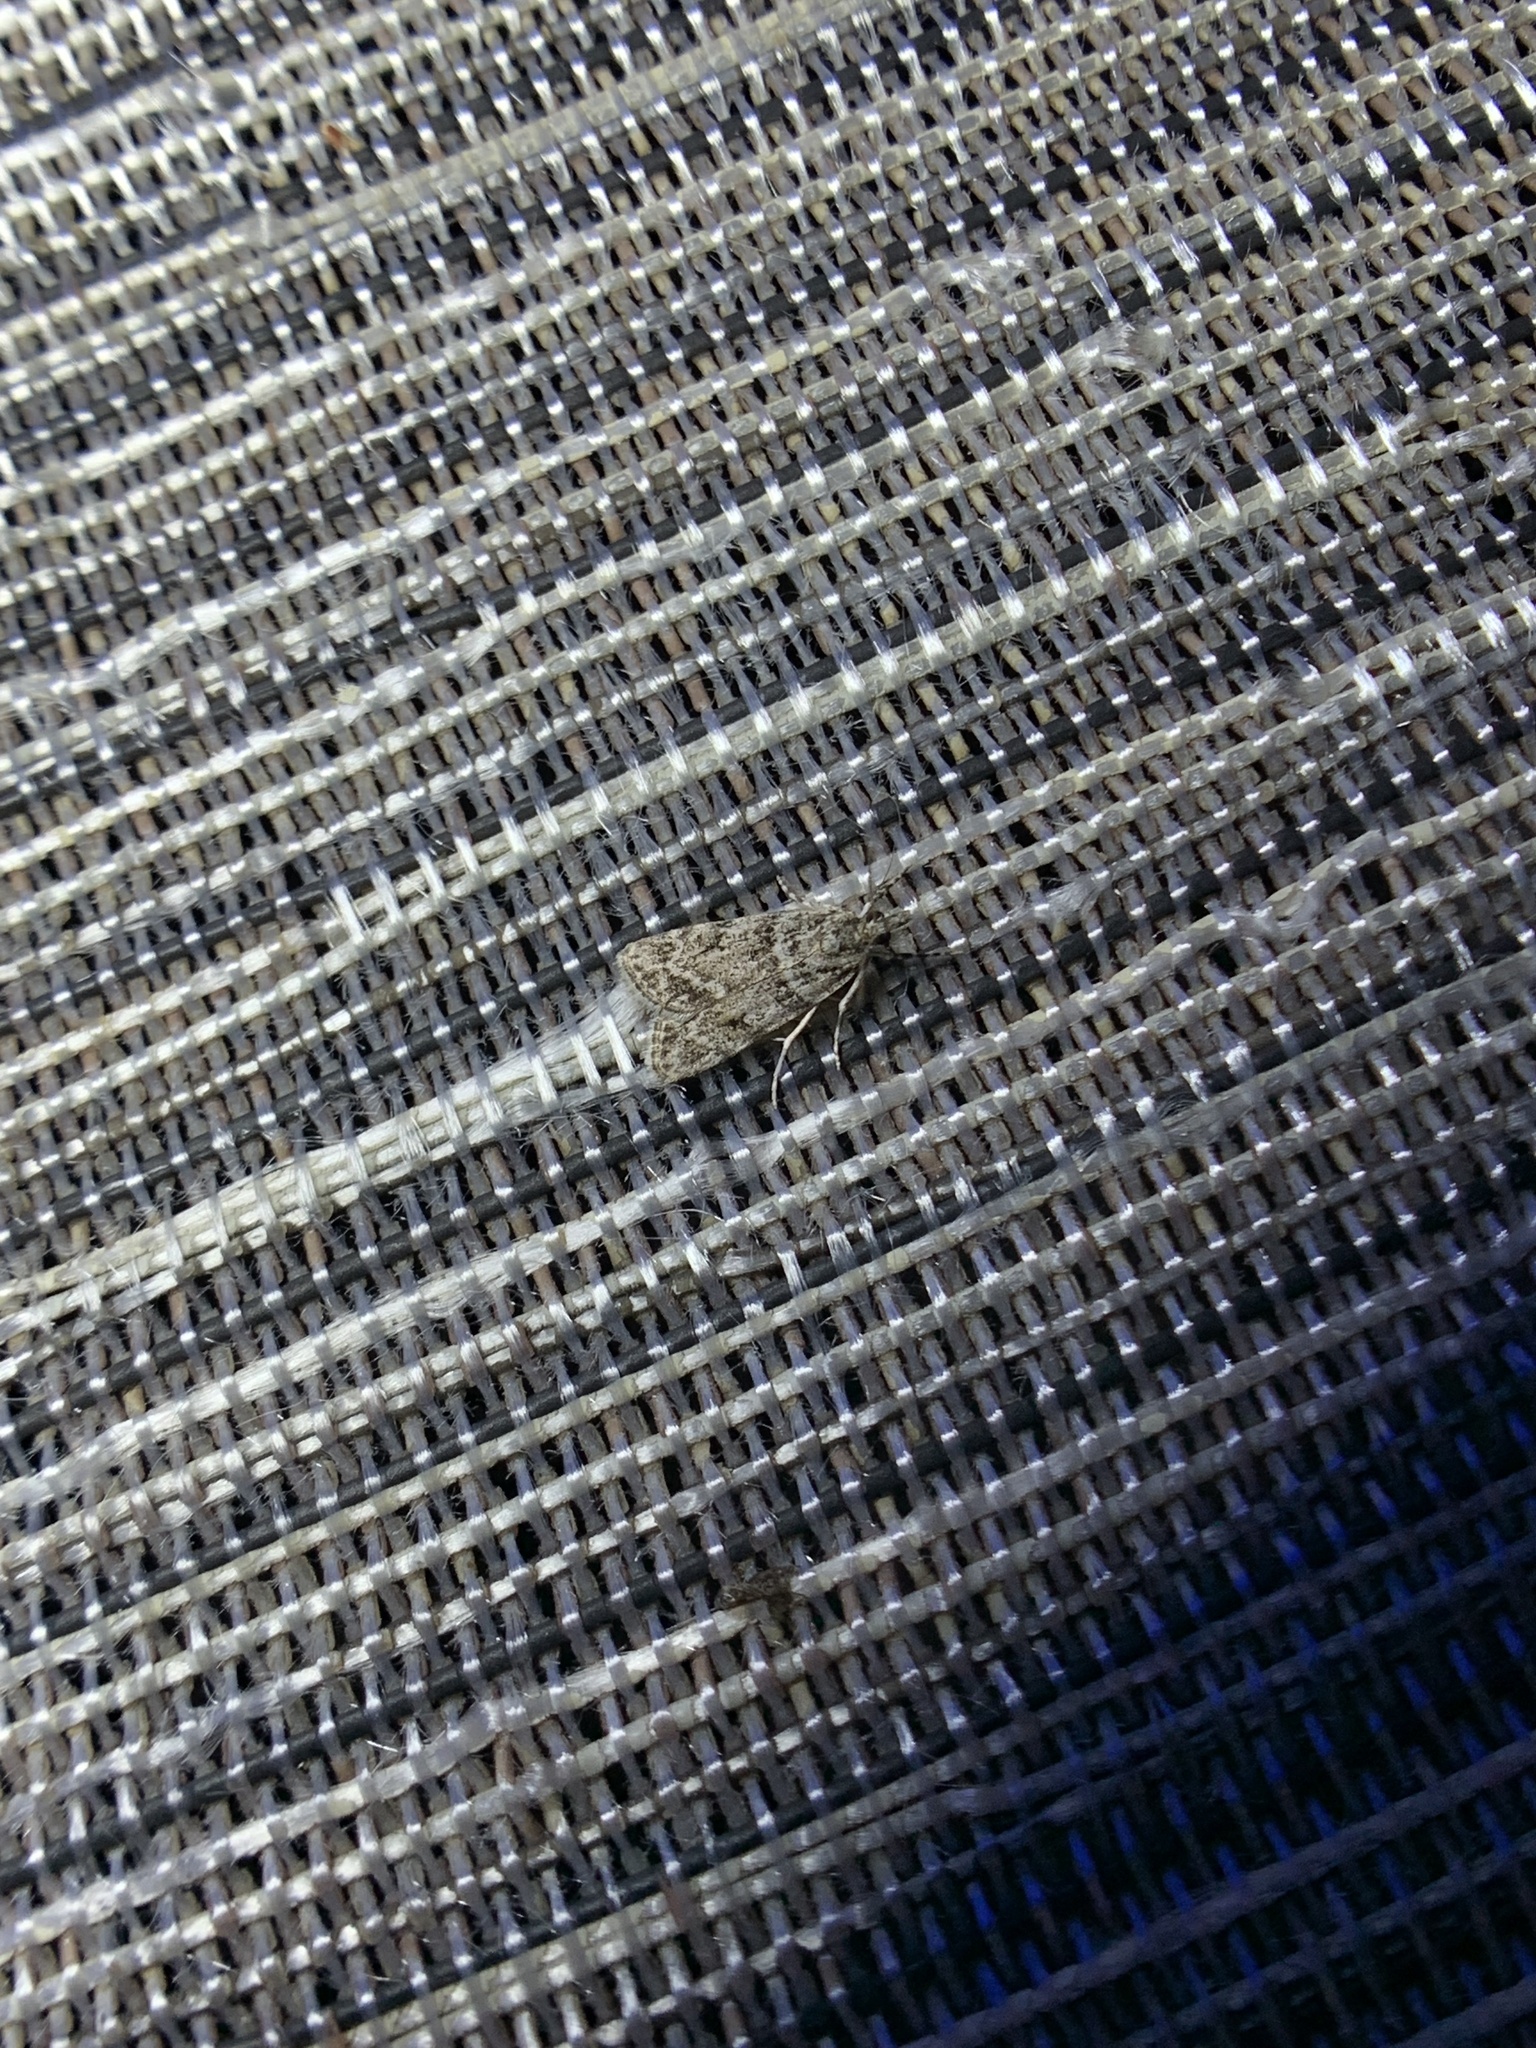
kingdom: Animalia
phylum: Arthropoda
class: Insecta
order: Lepidoptera
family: Crambidae
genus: Scoparia
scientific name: Scoparia biplagialis
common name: Double-striped scoparia moth
